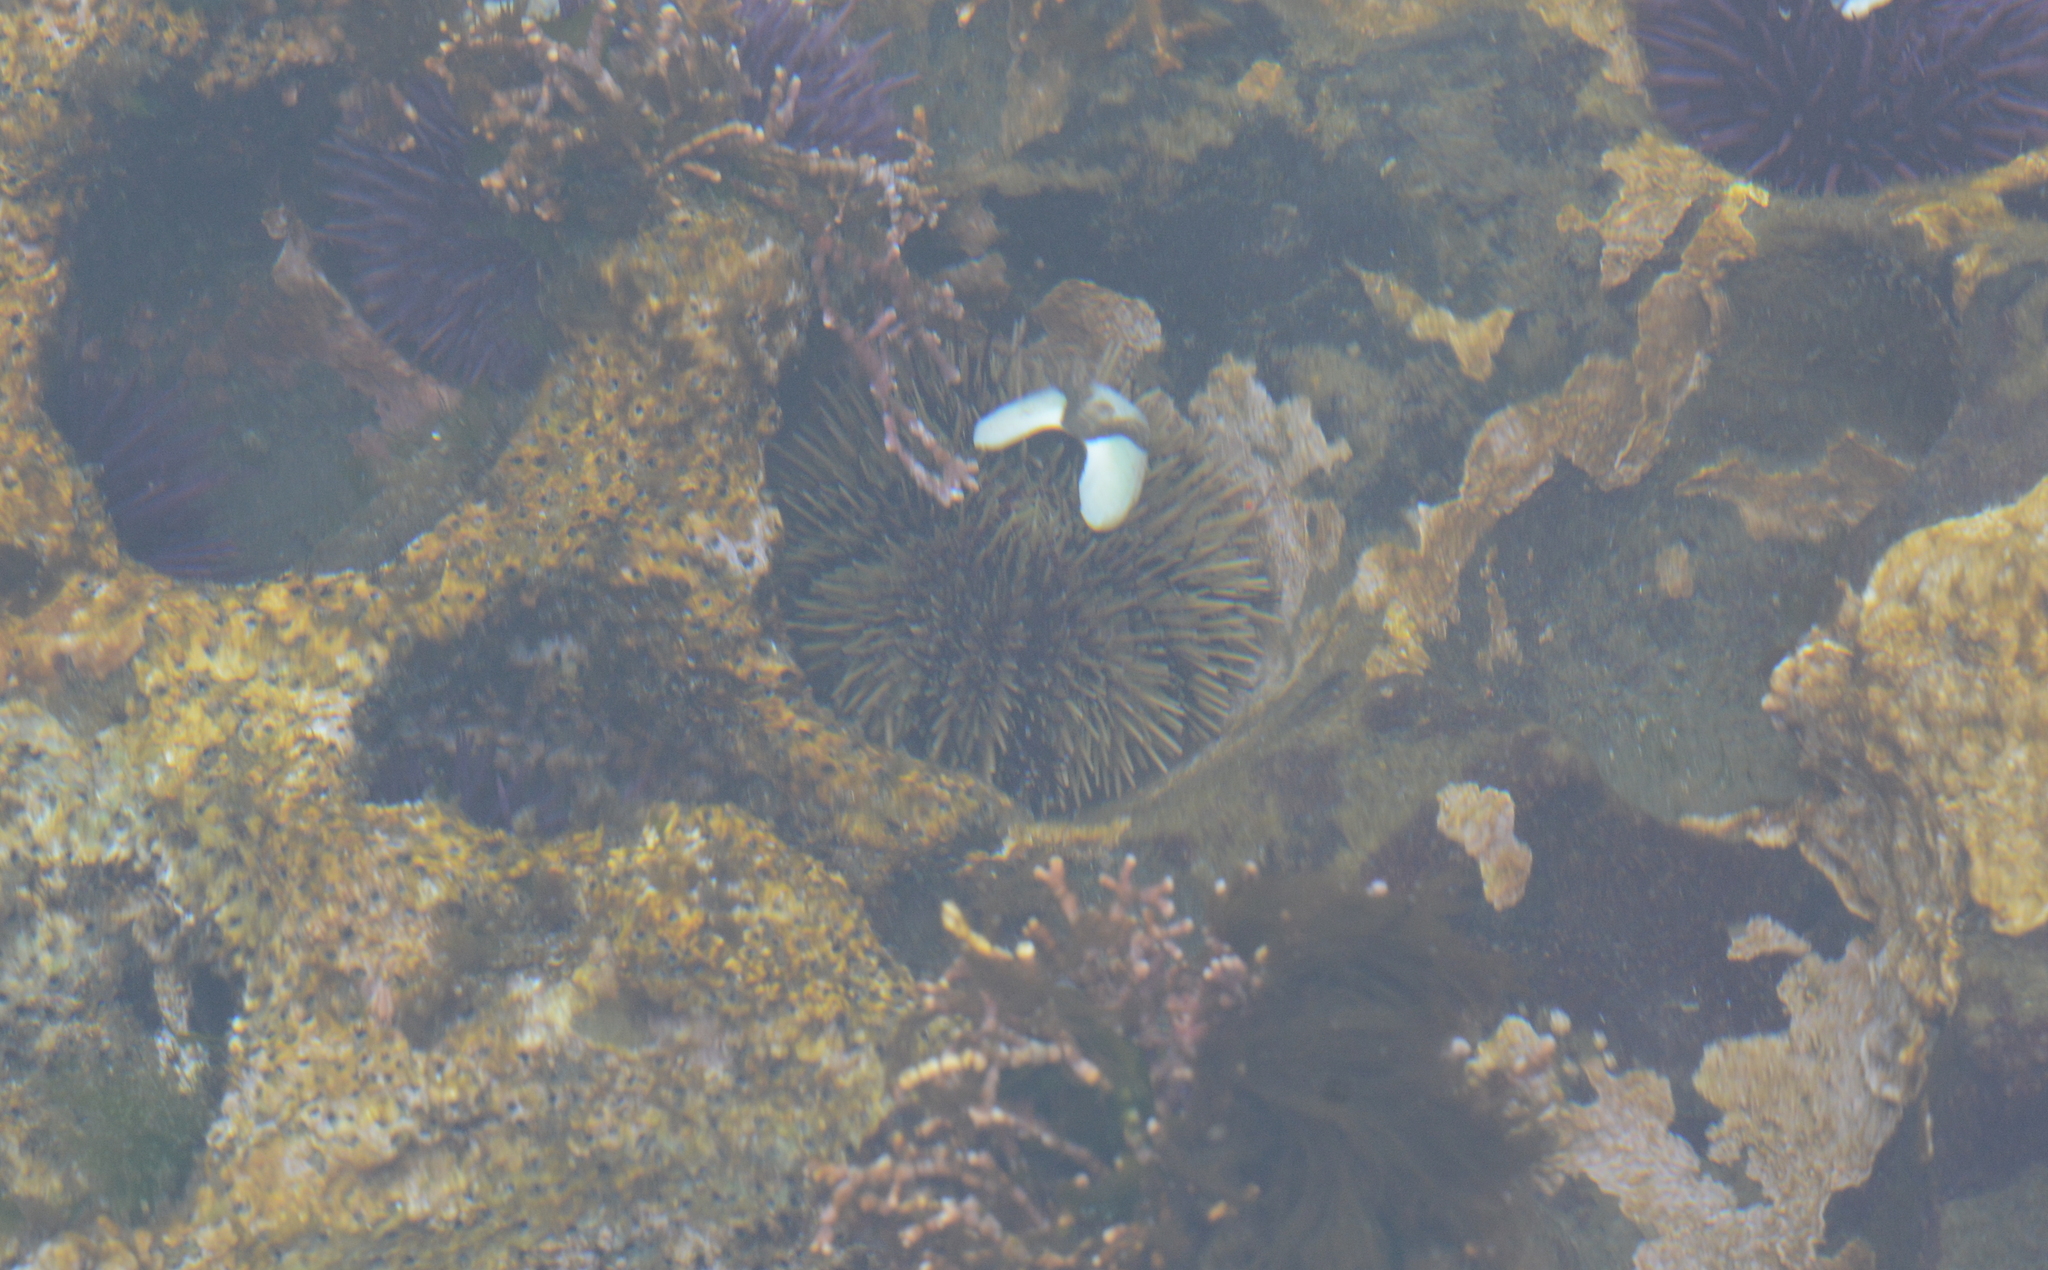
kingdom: Animalia
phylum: Echinodermata
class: Echinoidea
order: Camarodonta
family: Strongylocentrotidae
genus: Strongylocentrotus
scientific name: Strongylocentrotus droebachiensis
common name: Northern sea urchin
